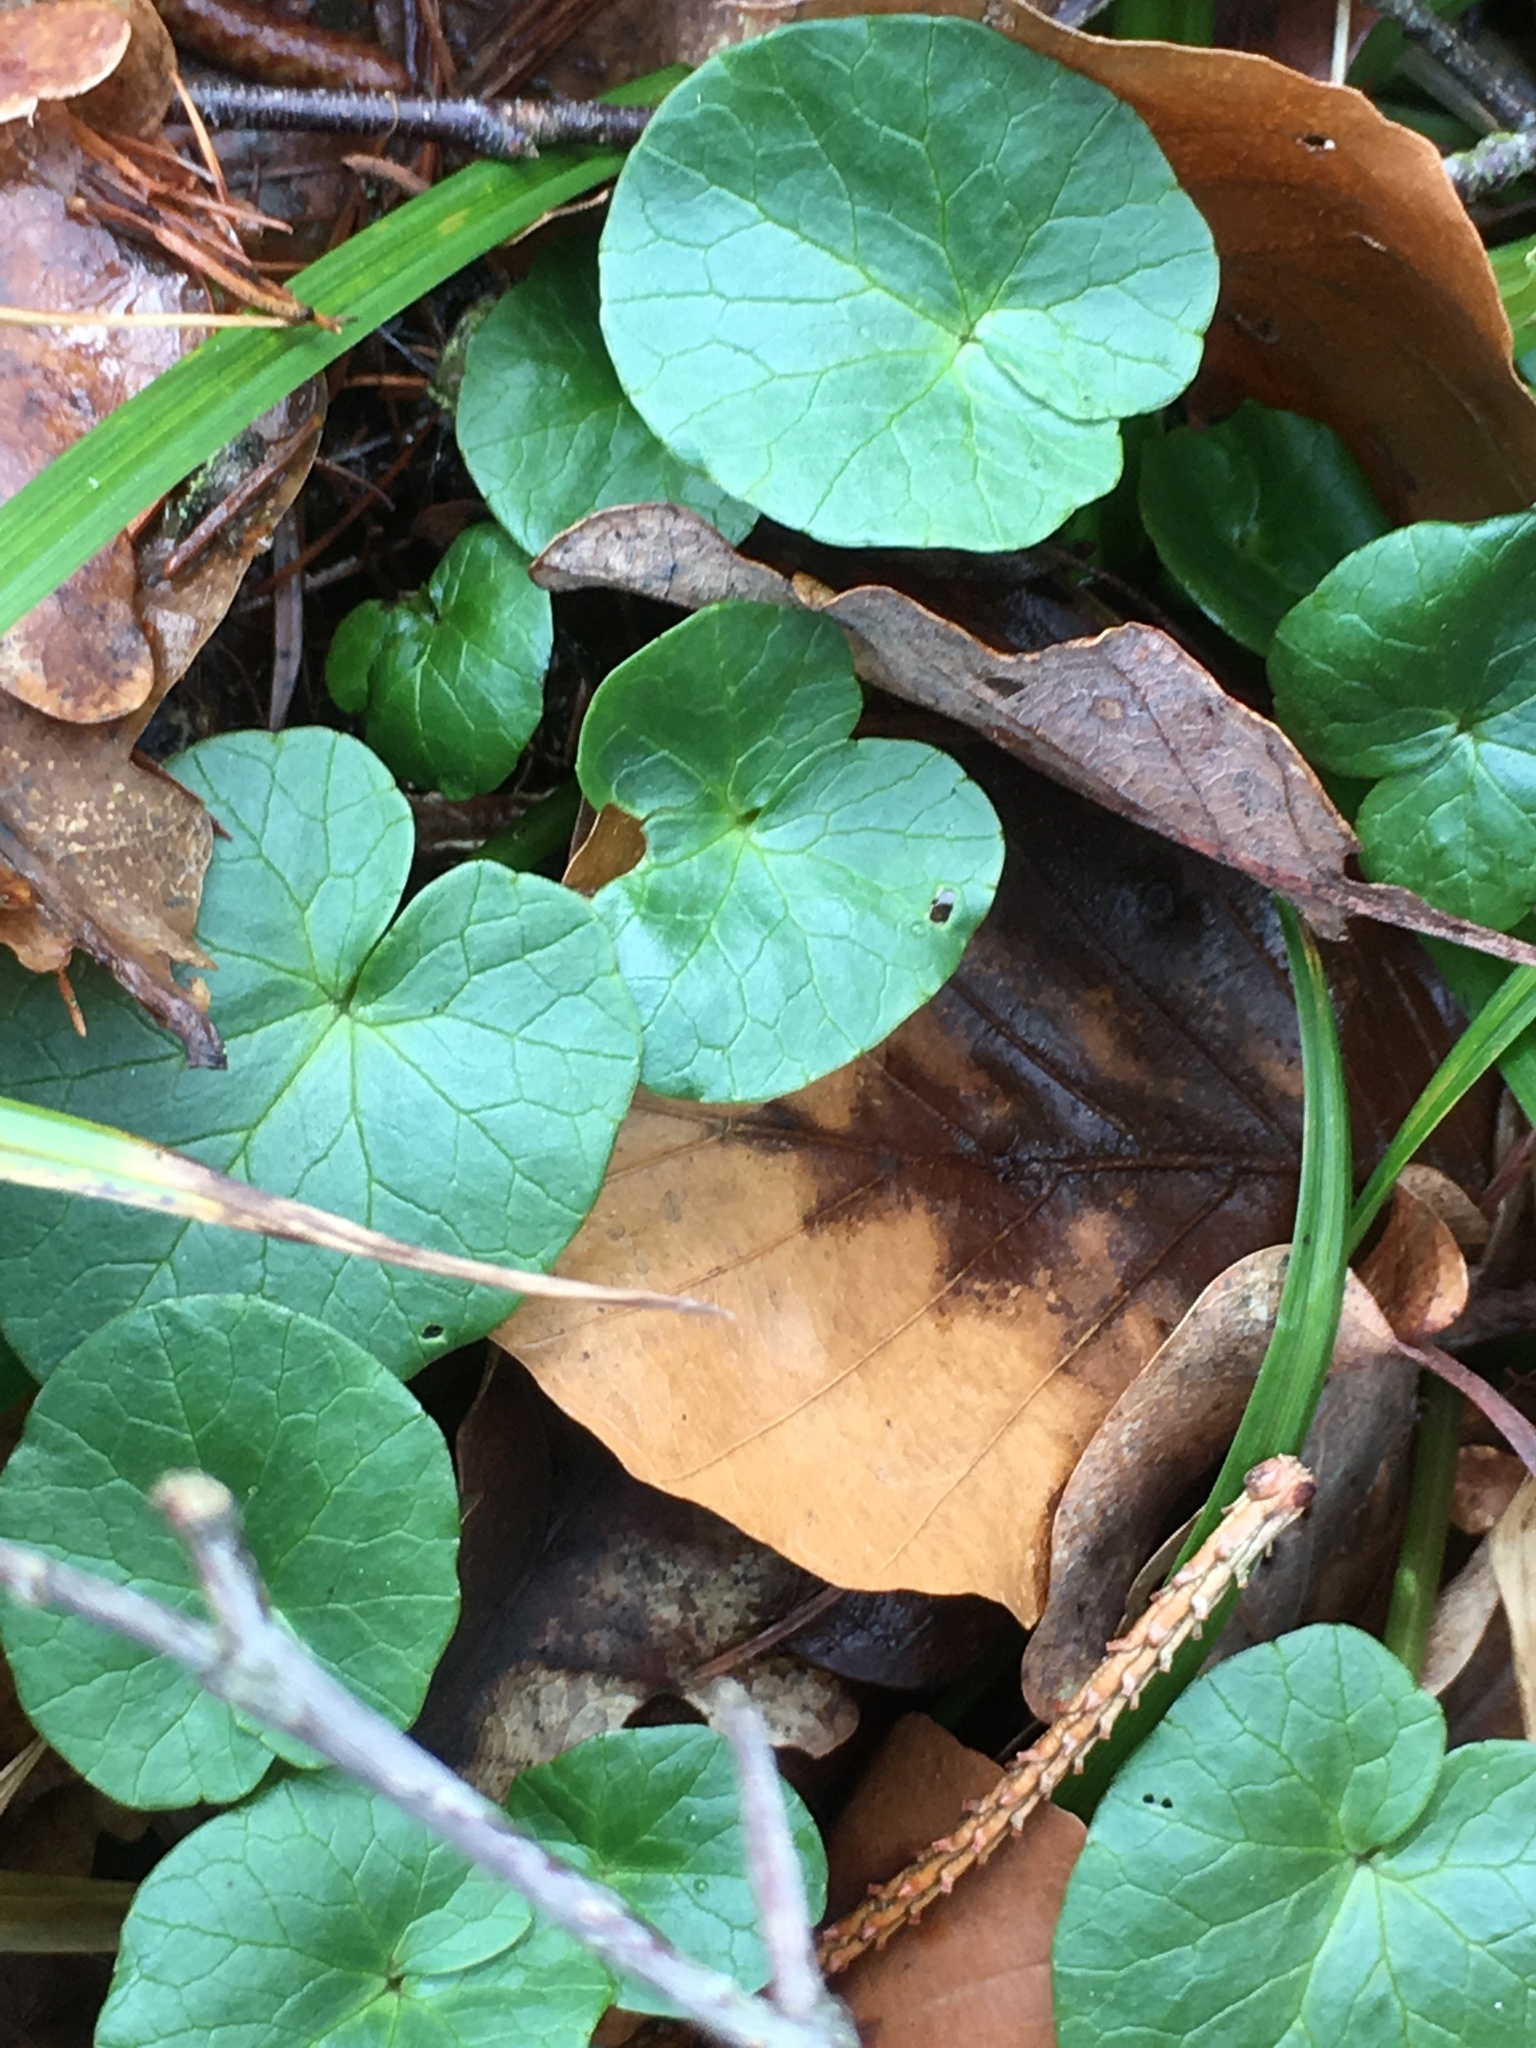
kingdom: Plantae
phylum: Tracheophyta
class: Magnoliopsida
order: Ranunculales
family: Ranunculaceae
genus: Ficaria
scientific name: Ficaria verna
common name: Lesser celandine
